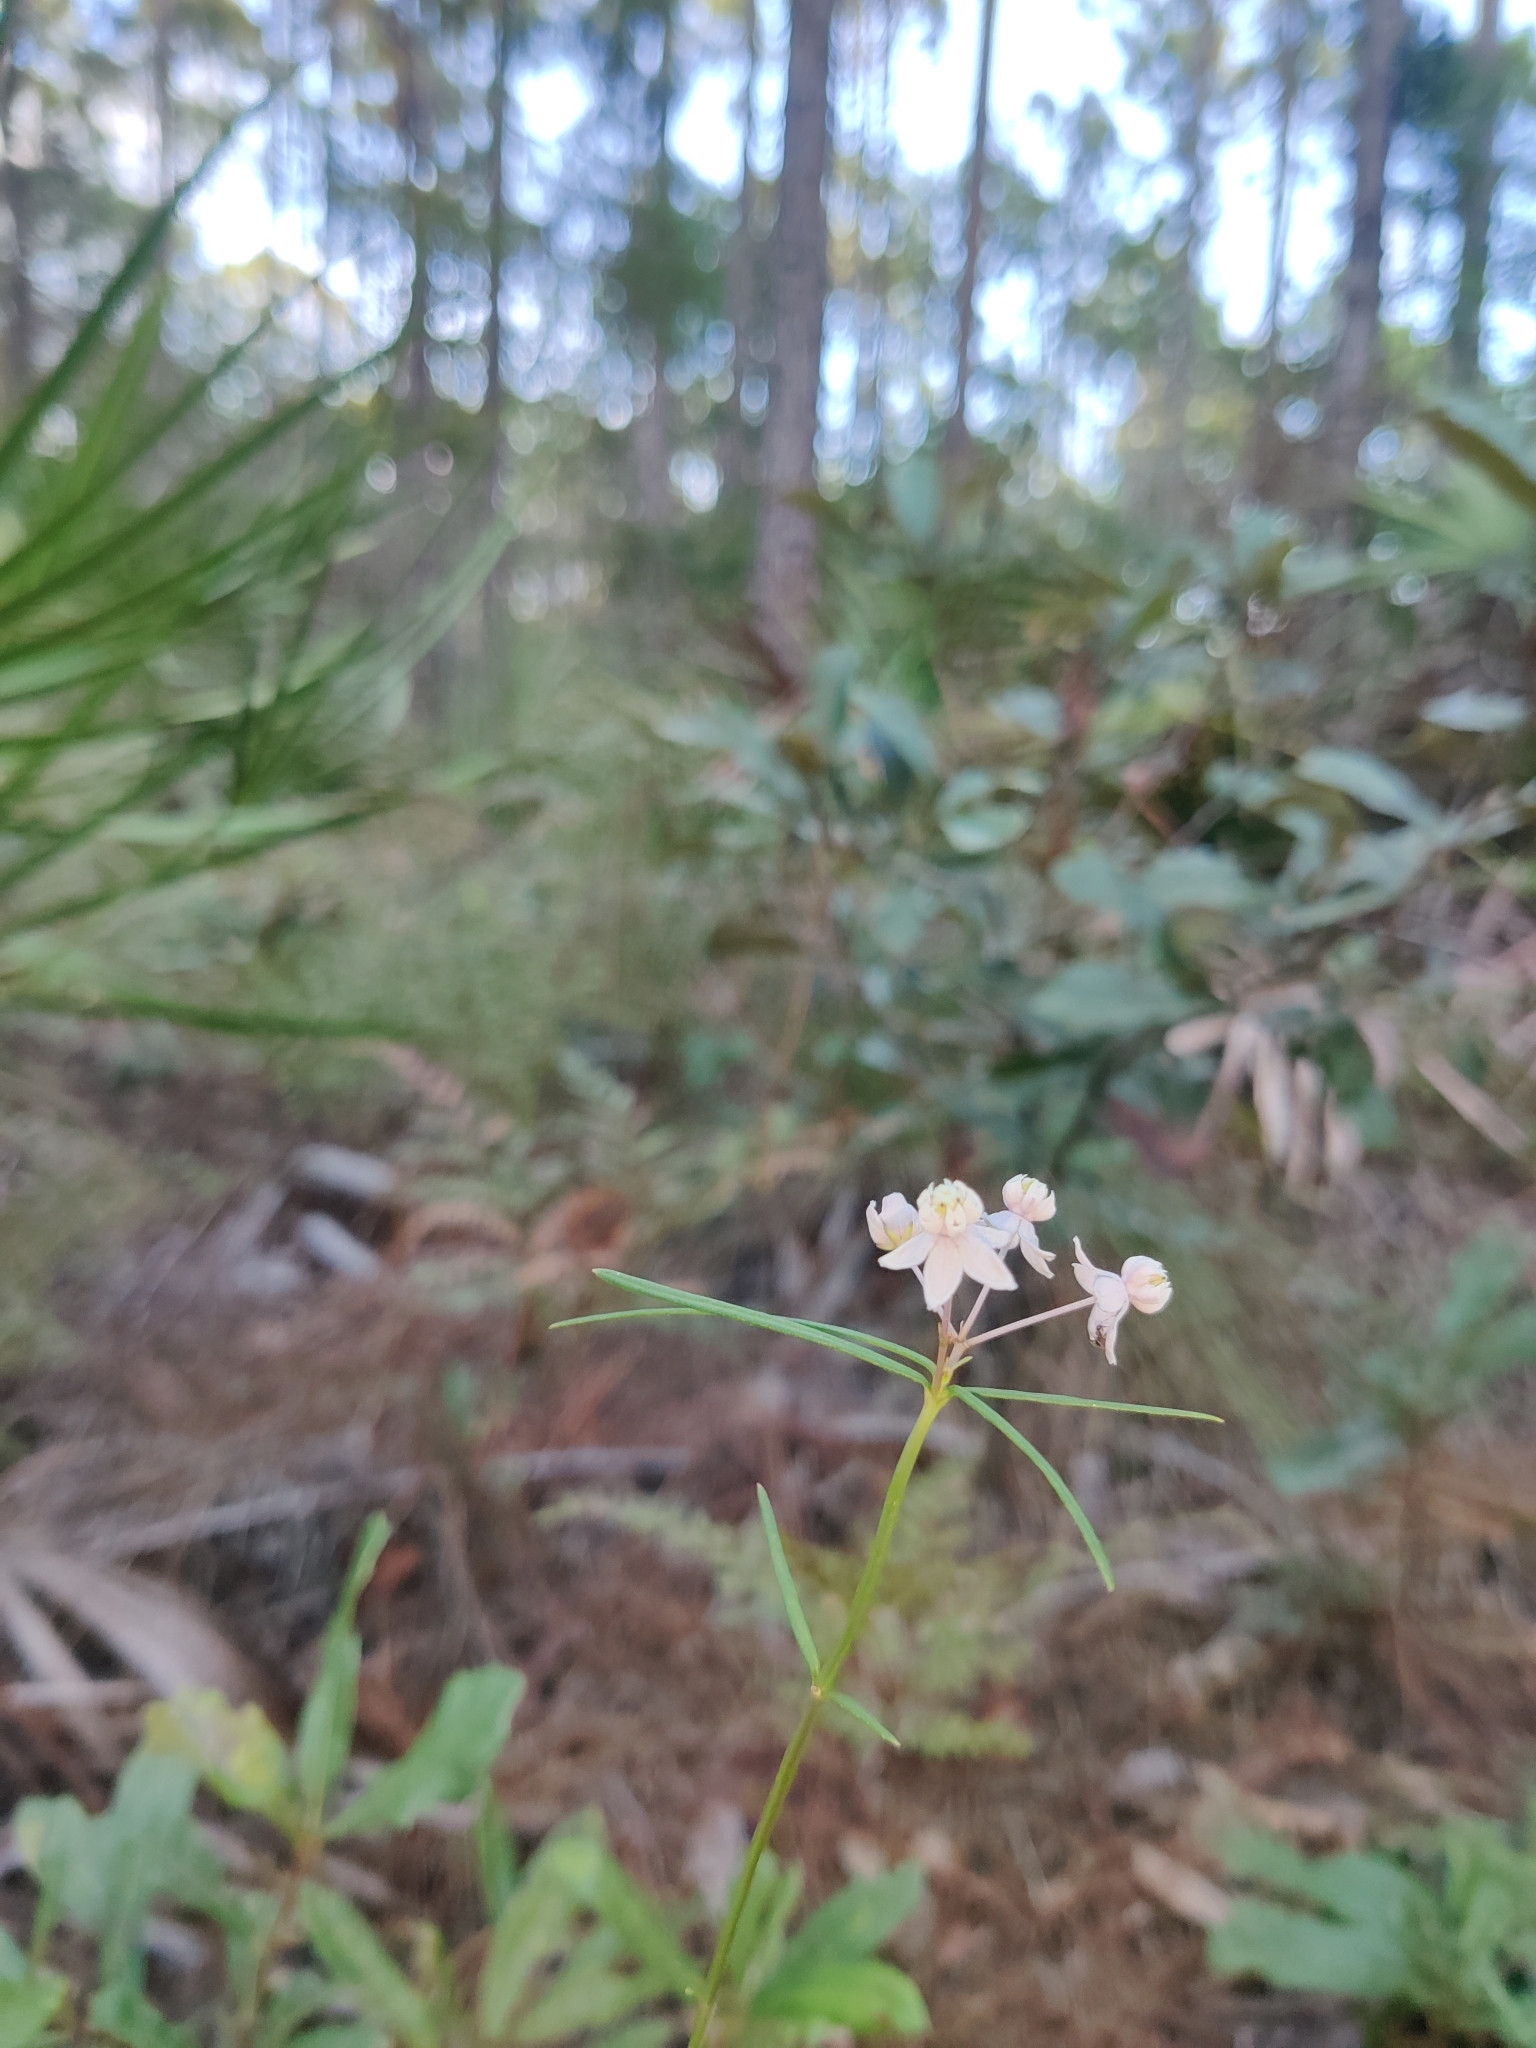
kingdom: Plantae
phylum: Tracheophyta
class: Magnoliopsida
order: Gentianales
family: Apocynaceae
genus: Asclepias
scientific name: Asclepias cinerea
